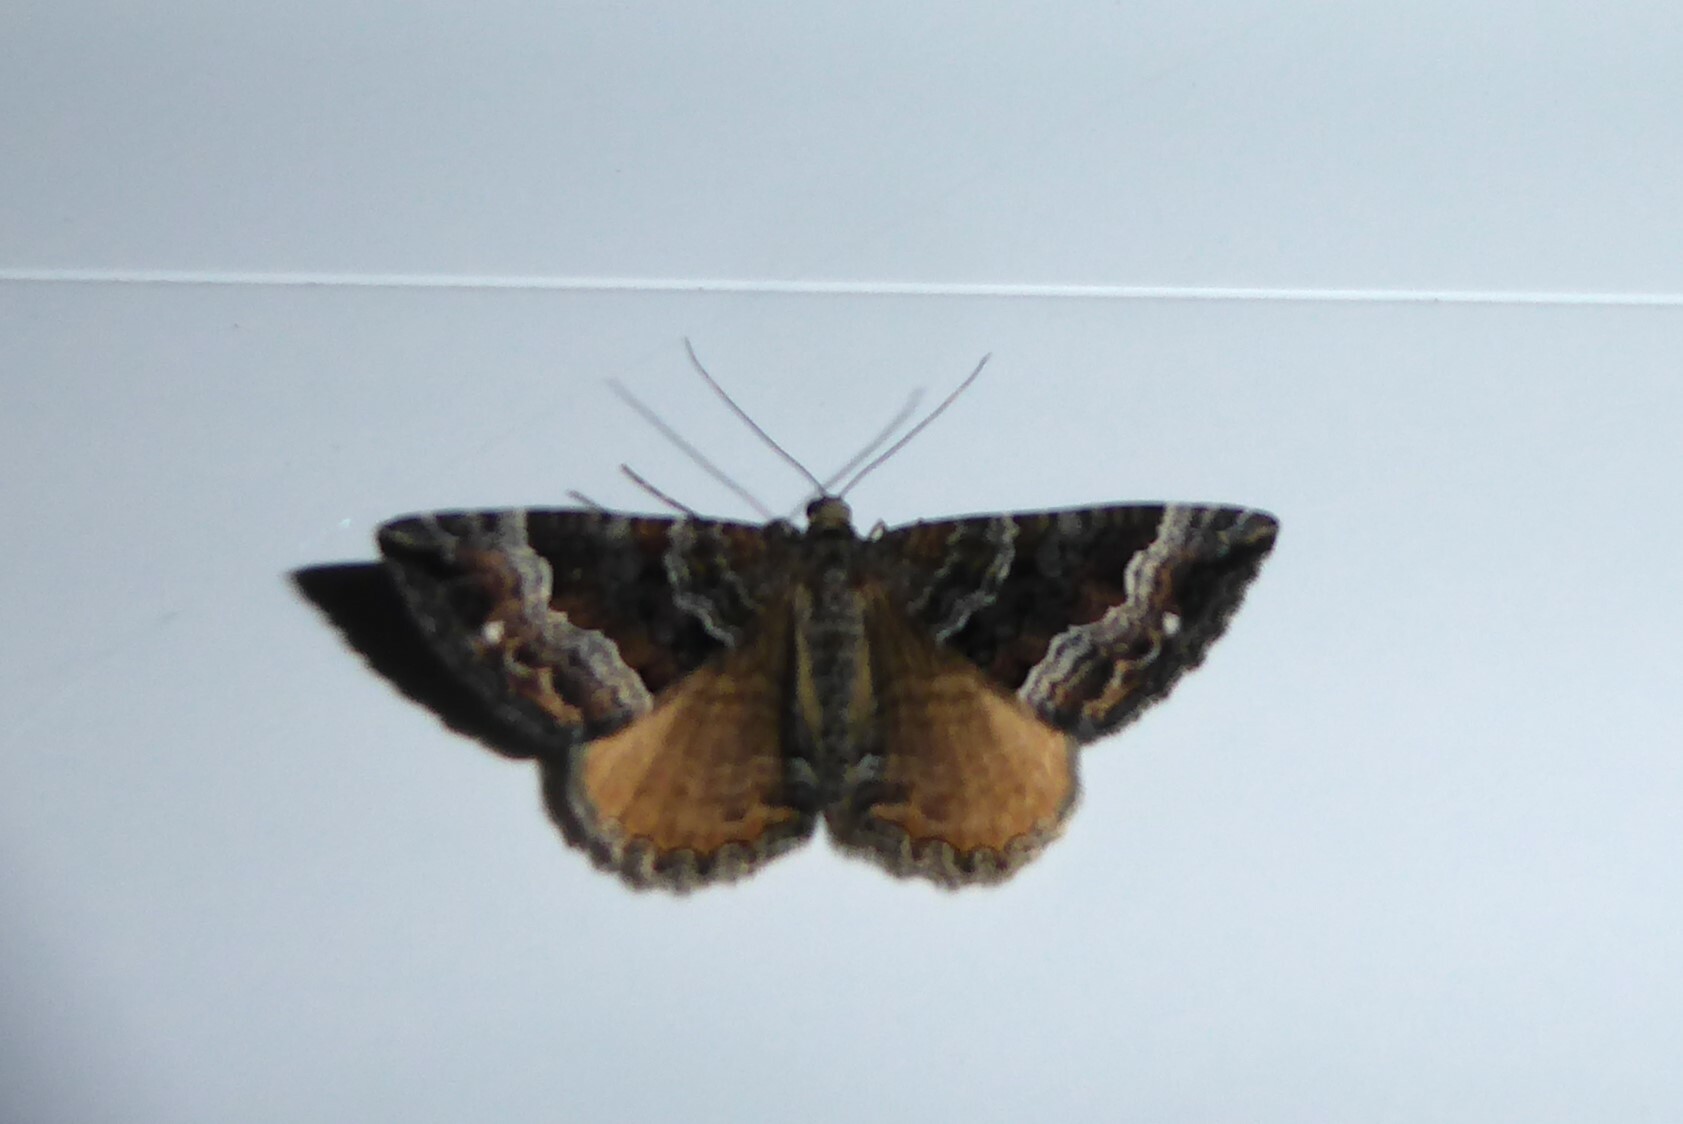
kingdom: Animalia
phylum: Arthropoda
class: Insecta
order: Lepidoptera
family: Geometridae
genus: Hydriomena
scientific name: Hydriomena deltoidata
